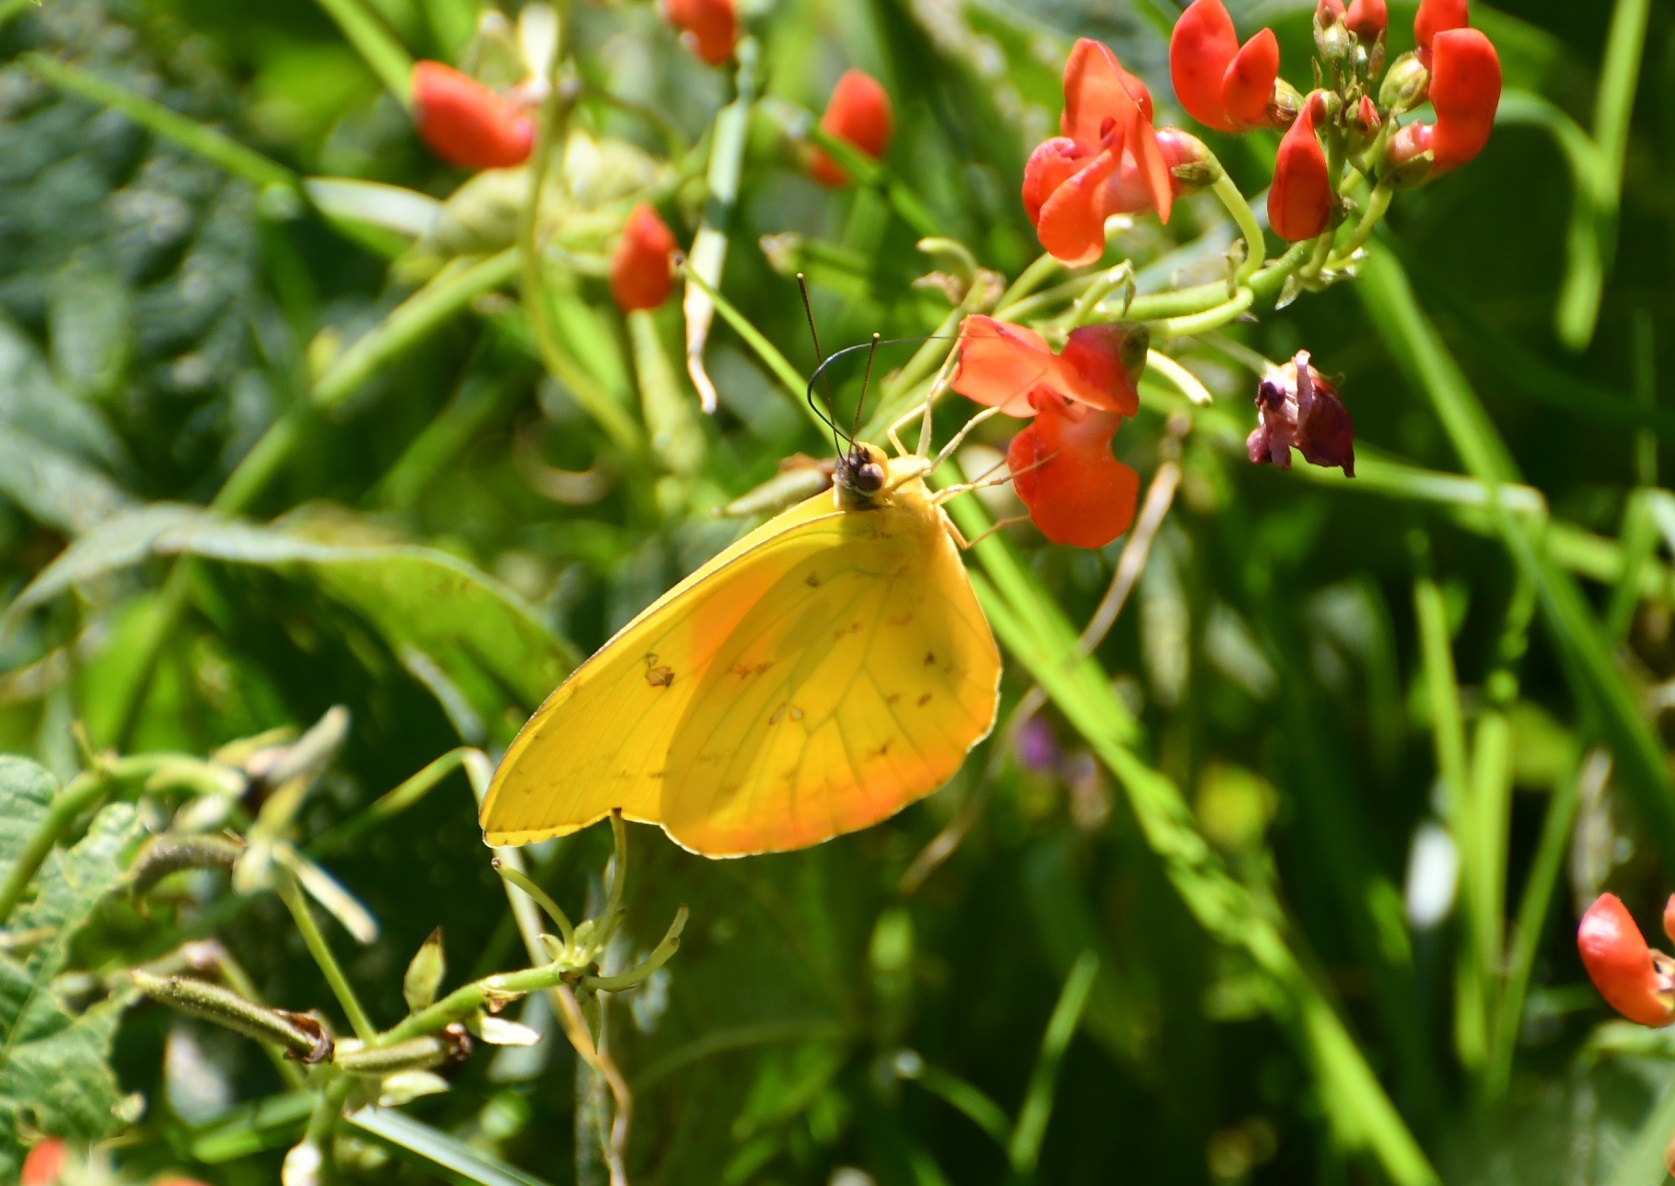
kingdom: Animalia
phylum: Arthropoda
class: Insecta
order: Lepidoptera
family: Pieridae
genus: Phoebis
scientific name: Phoebis philea
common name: Orange-barred giant sulphur
